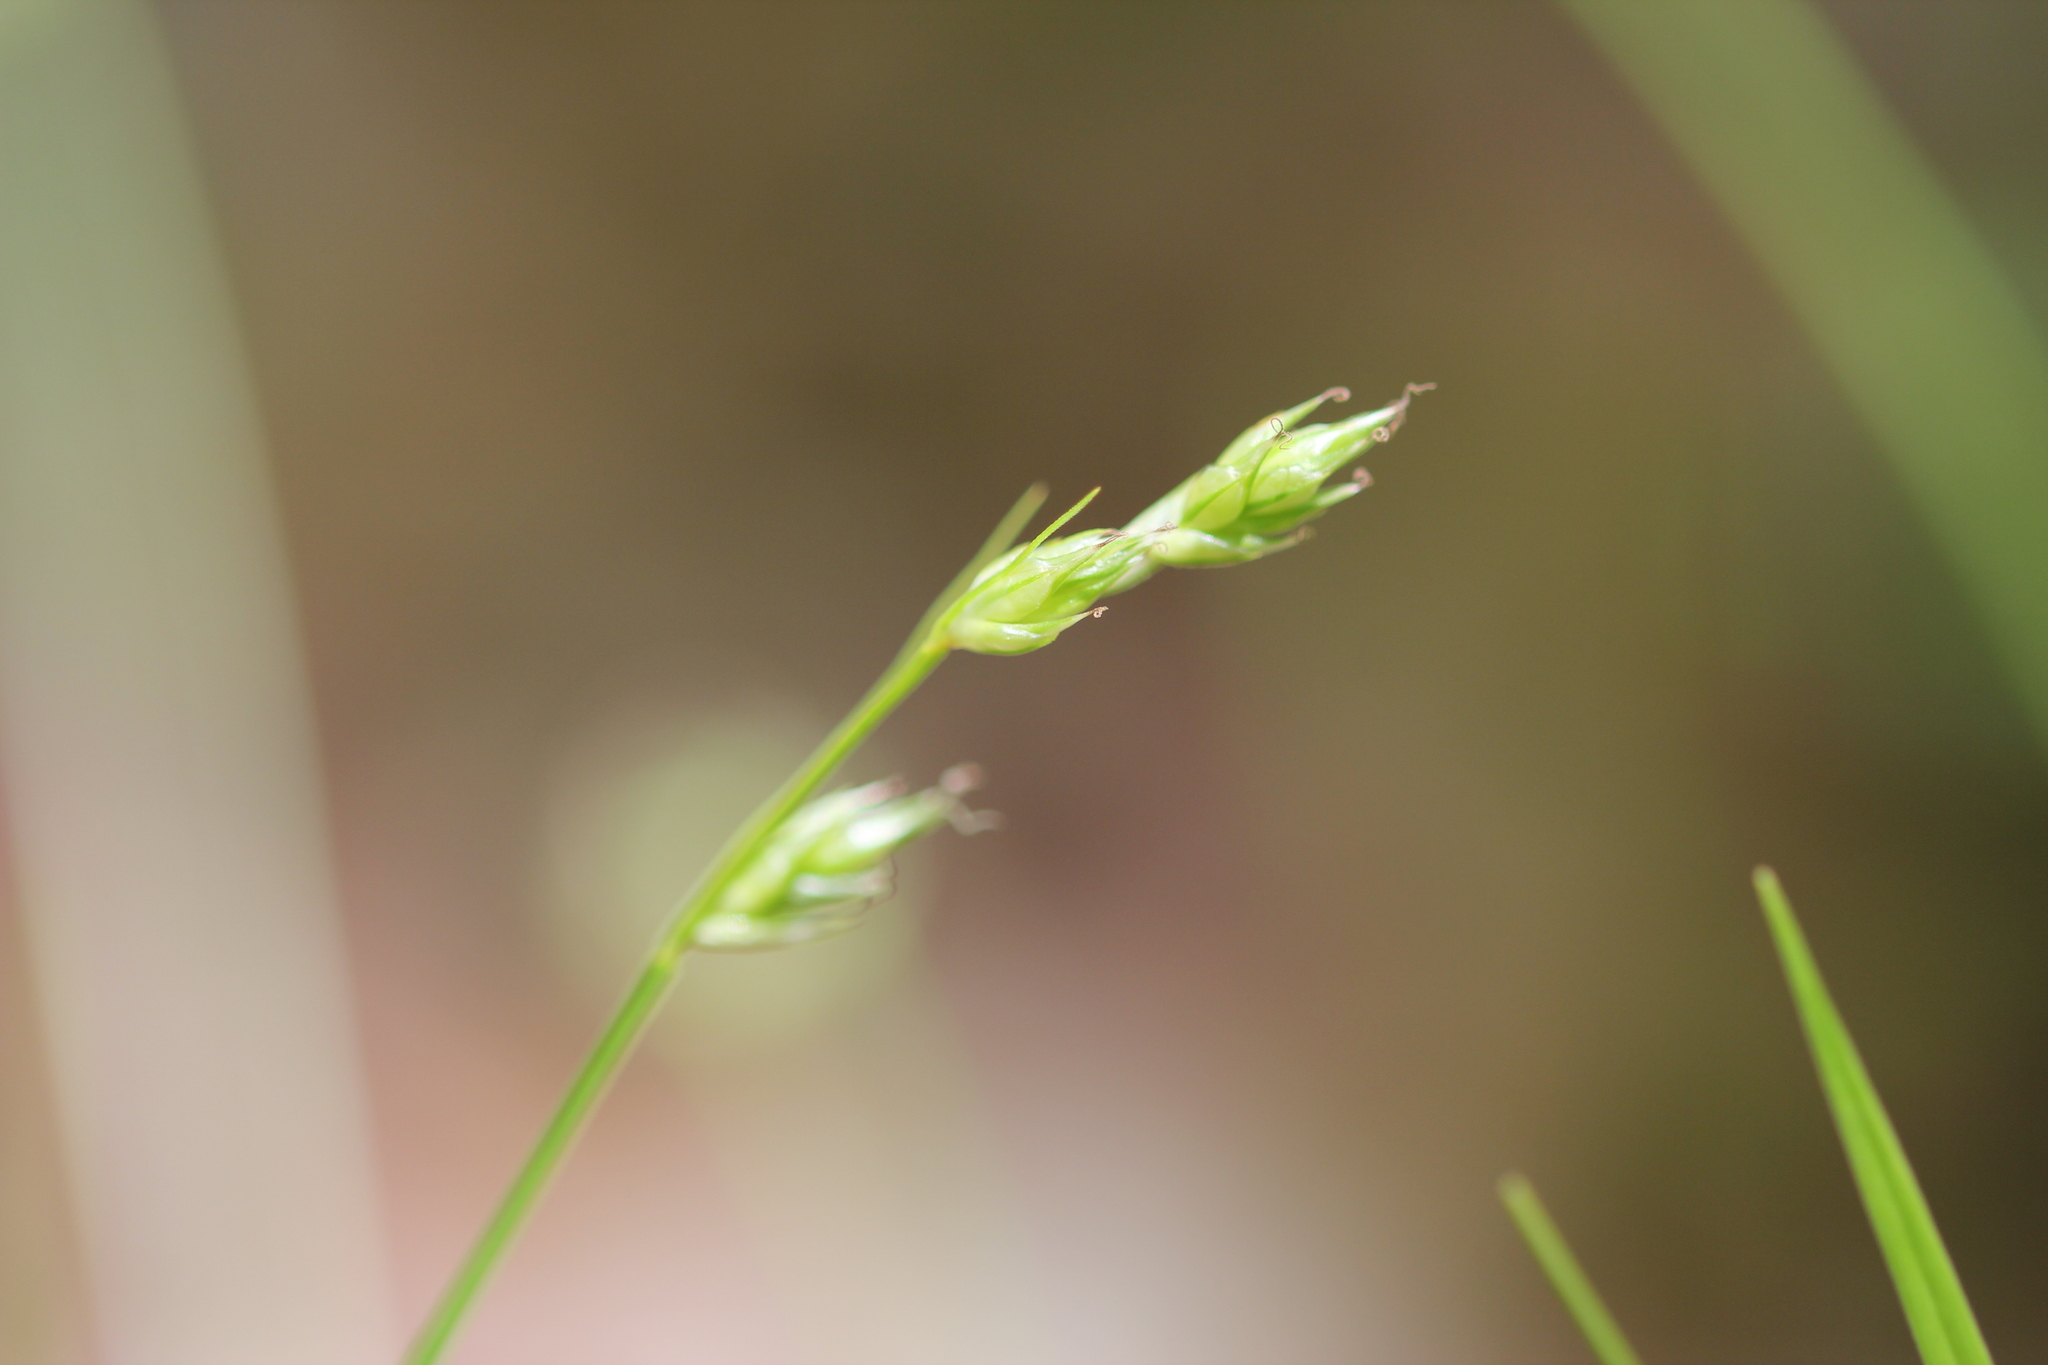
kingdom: Plantae
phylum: Tracheophyta
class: Liliopsida
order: Poales
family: Cyperaceae
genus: Carex
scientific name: Carex deweyana
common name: Dewey's sedge
